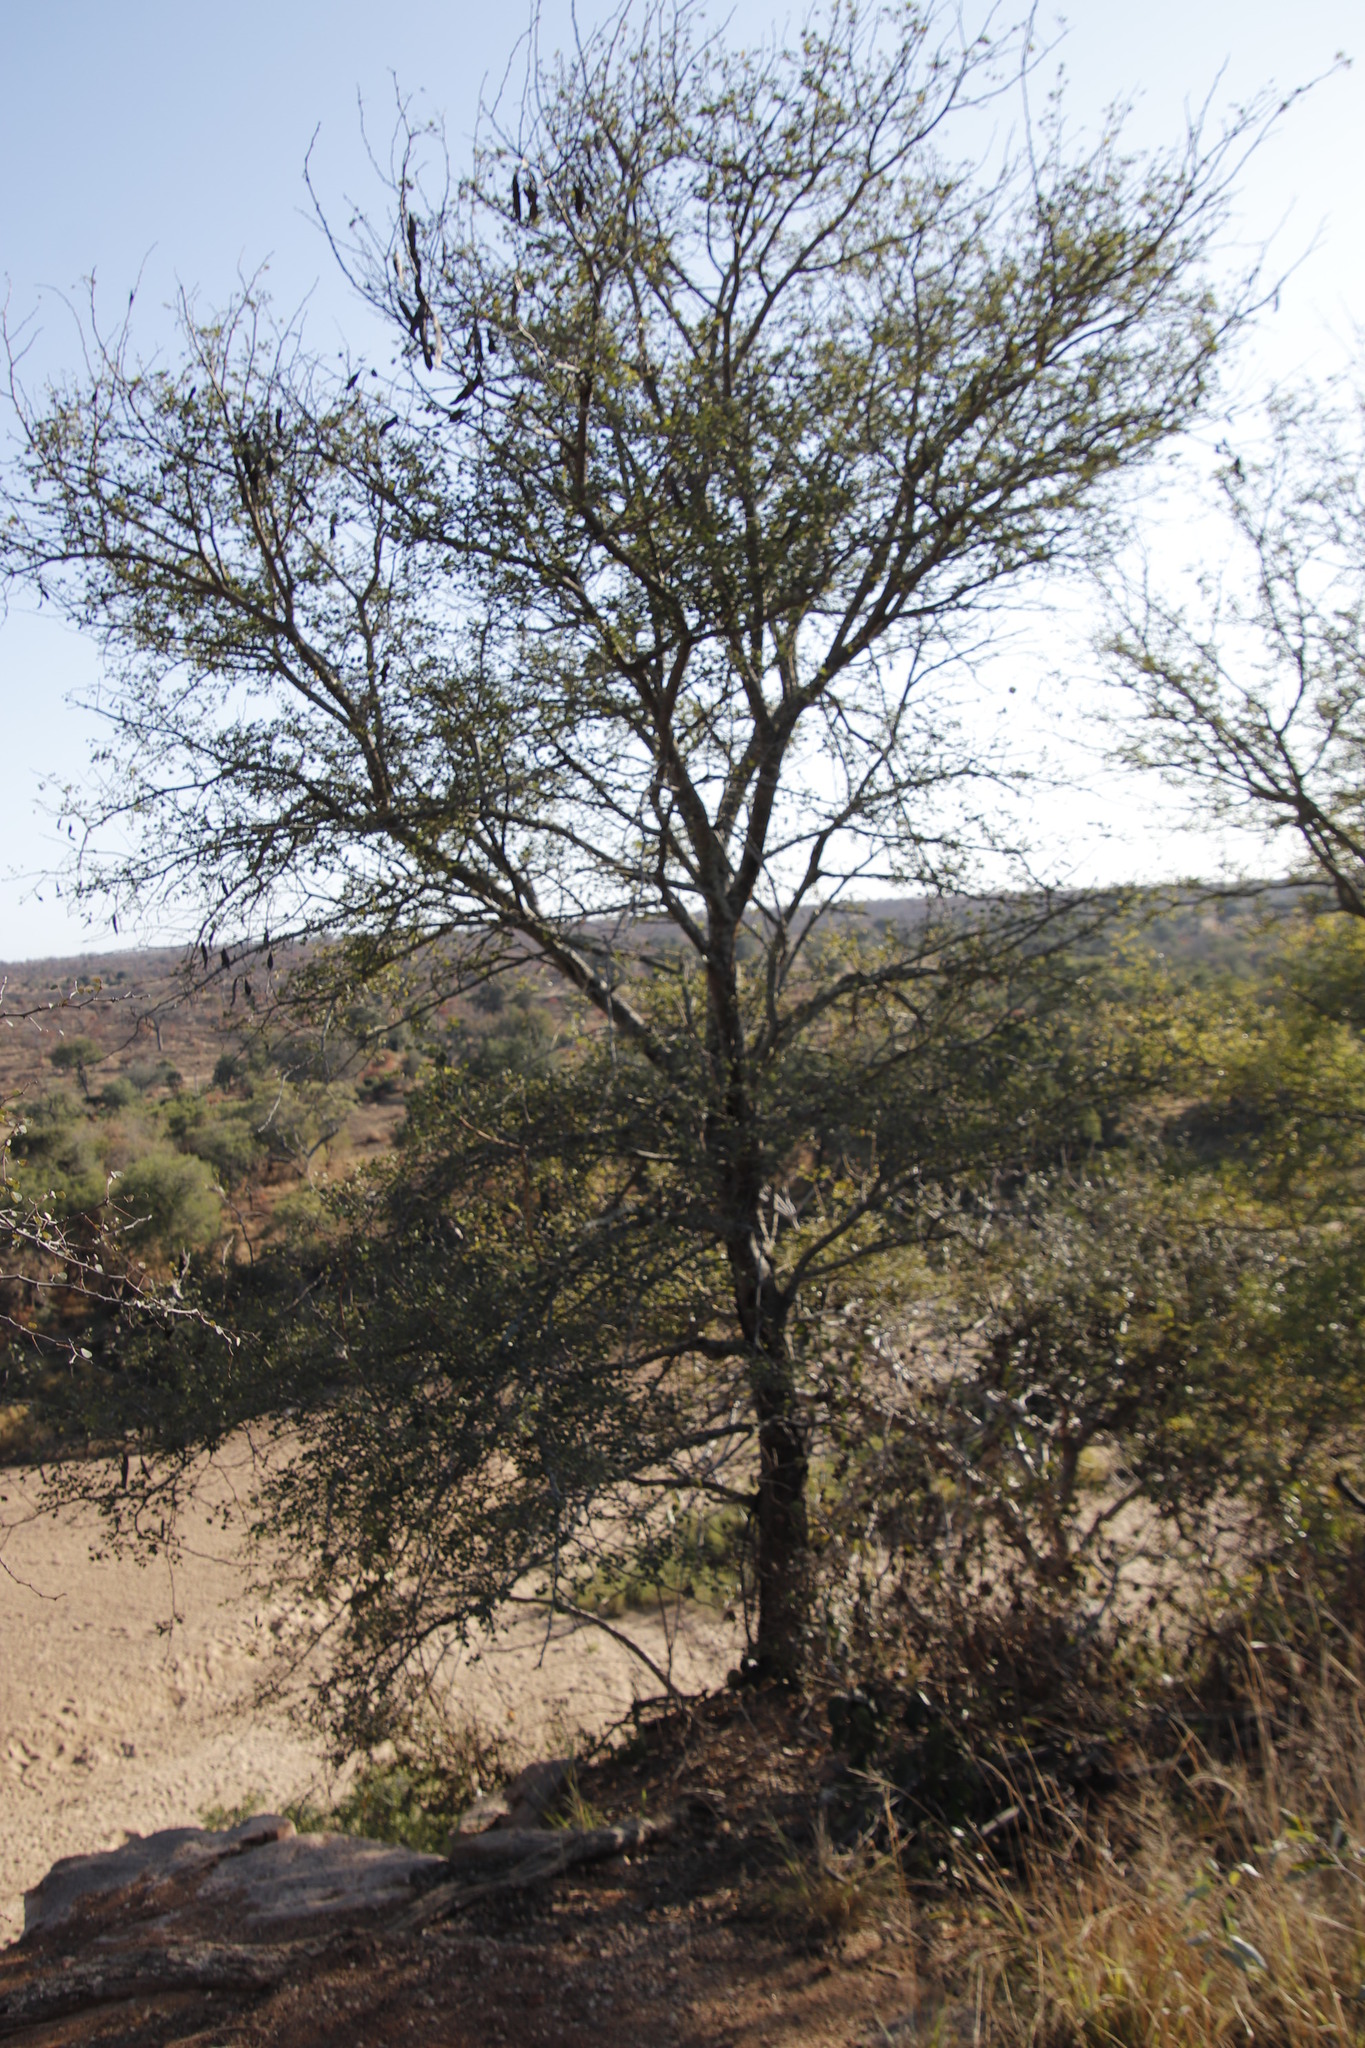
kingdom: Plantae
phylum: Tracheophyta
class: Magnoliopsida
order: Fabales
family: Fabaceae
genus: Senegalia
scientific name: Senegalia nigrescens
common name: Knobthorn
